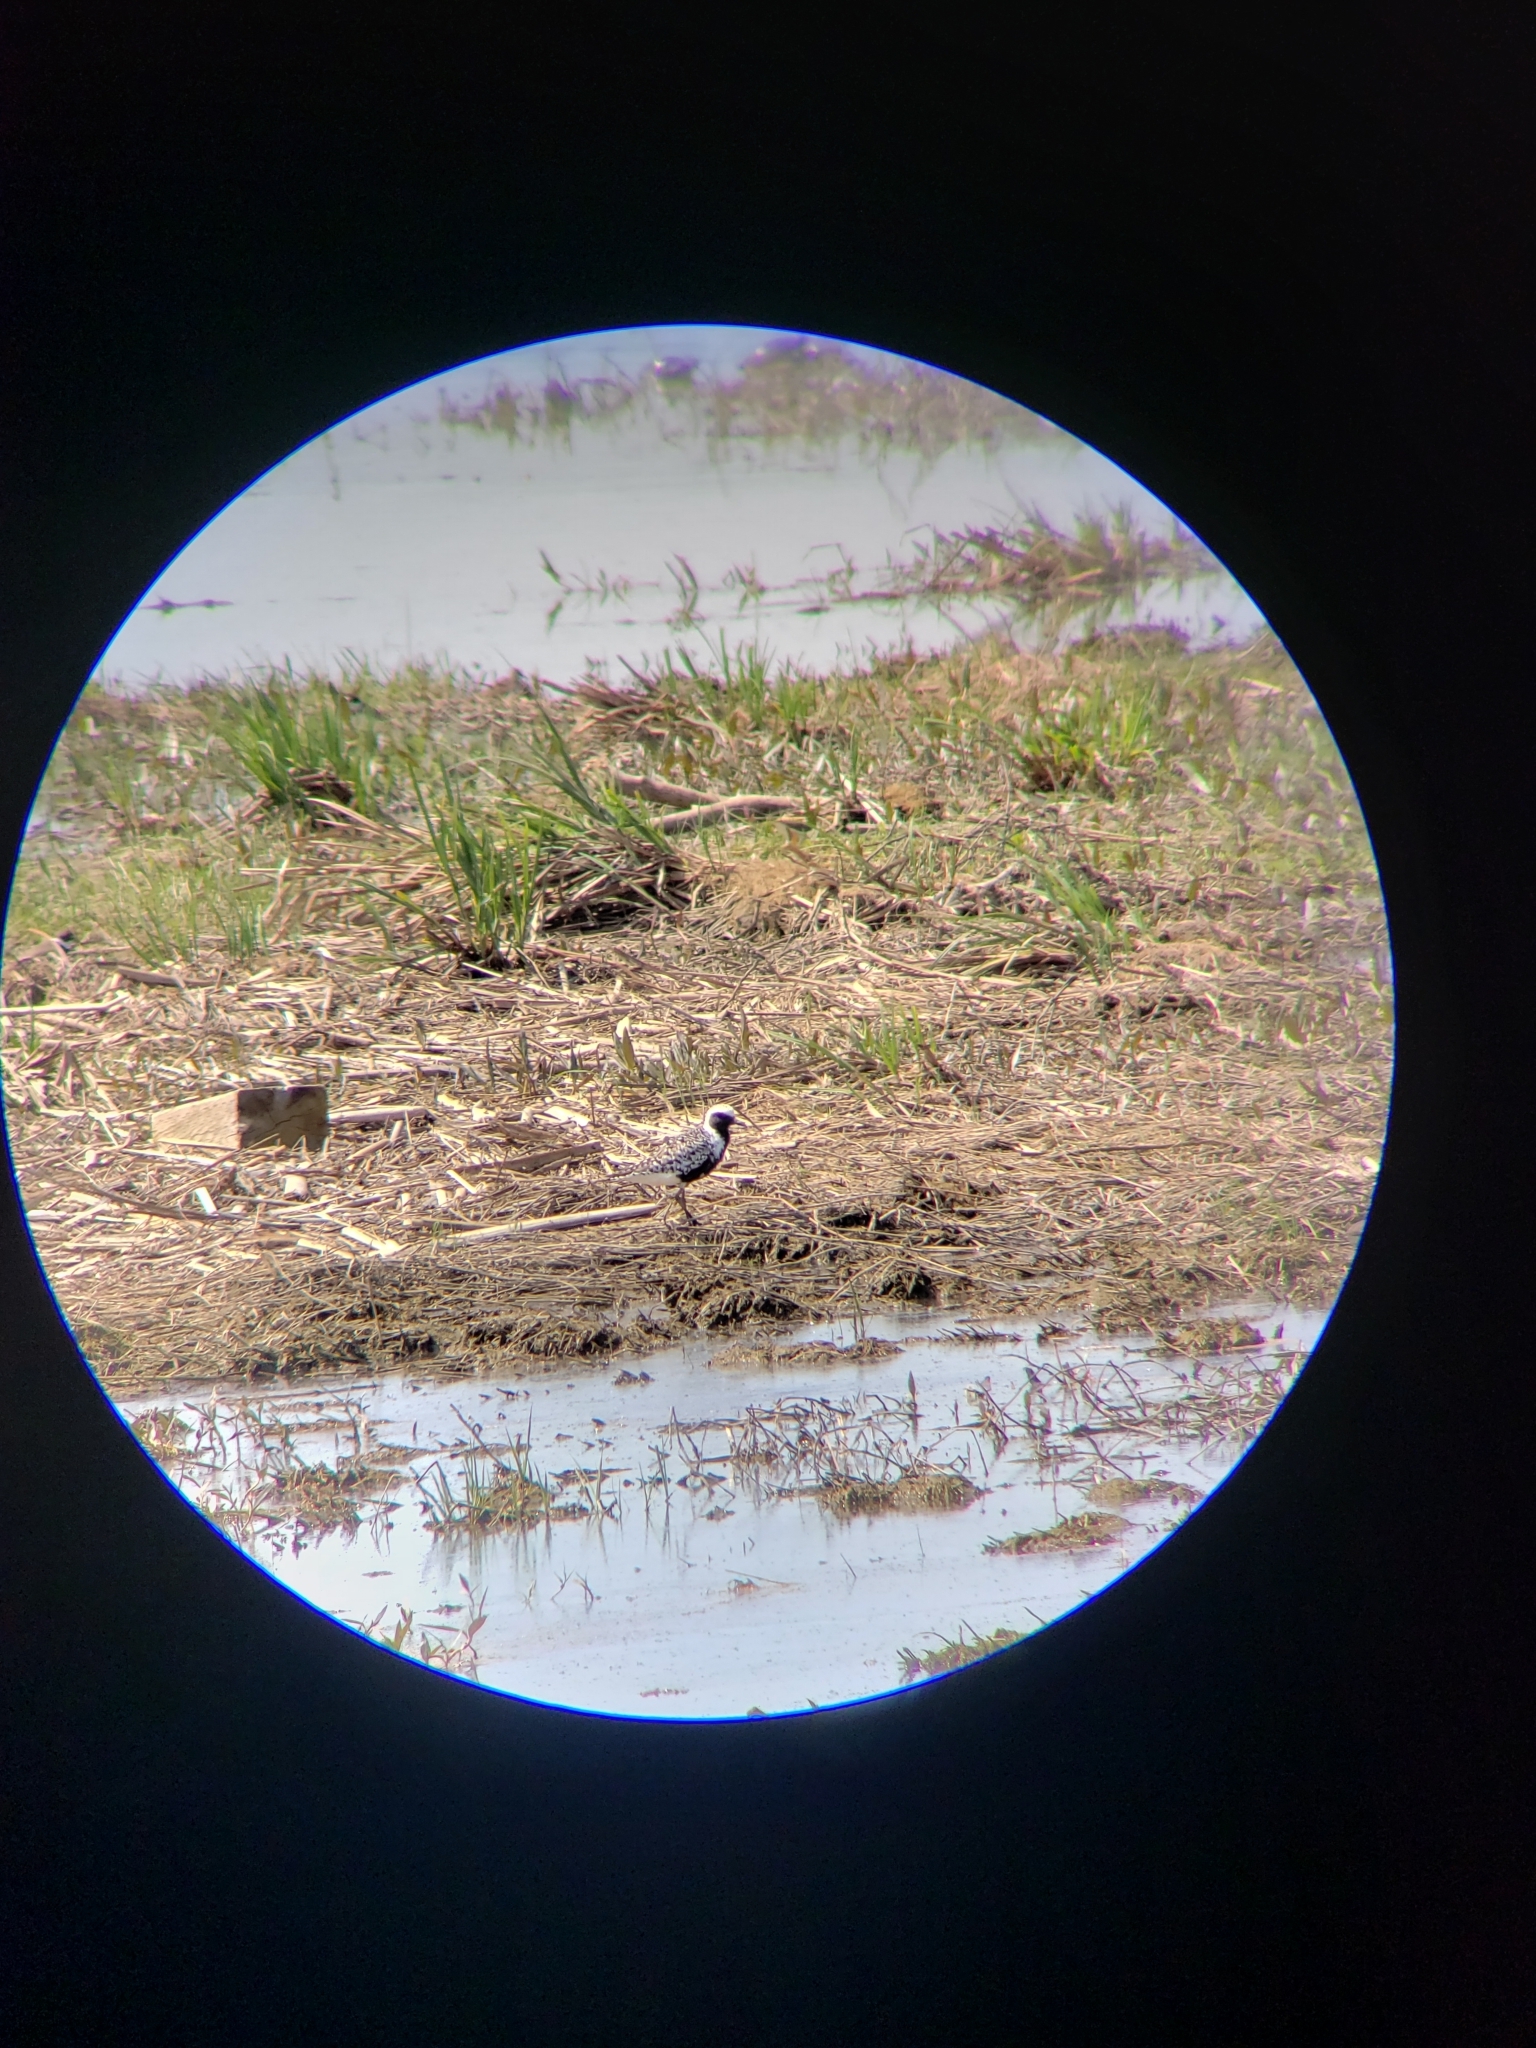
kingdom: Animalia
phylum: Chordata
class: Aves
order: Charadriiformes
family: Charadriidae
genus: Pluvialis
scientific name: Pluvialis squatarola
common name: Grey plover
